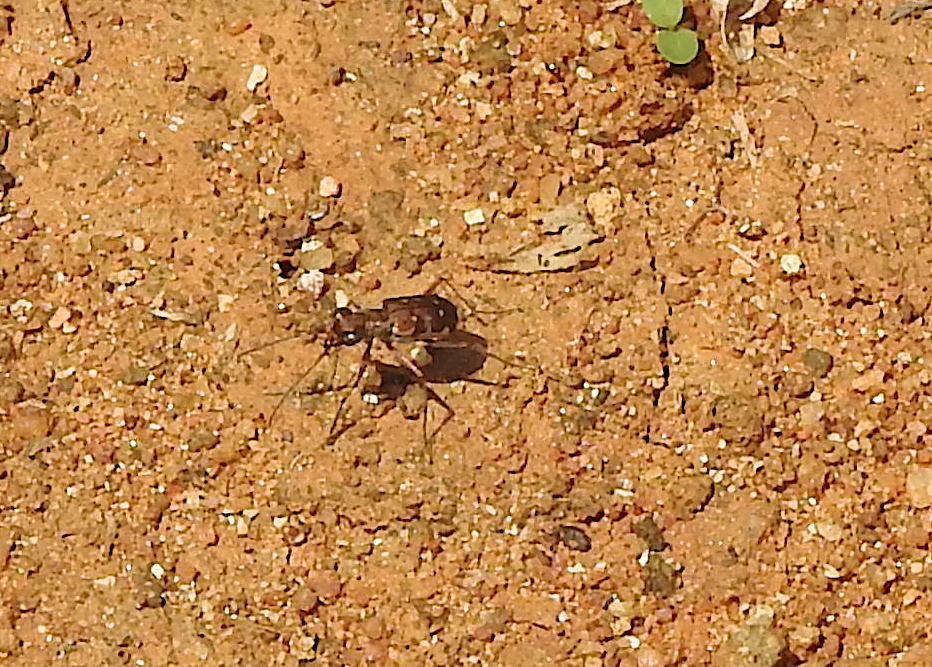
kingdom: Animalia
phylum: Arthropoda
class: Insecta
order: Coleoptera
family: Carabidae
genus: Myriochila
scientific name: Myriochila fastidiosa
